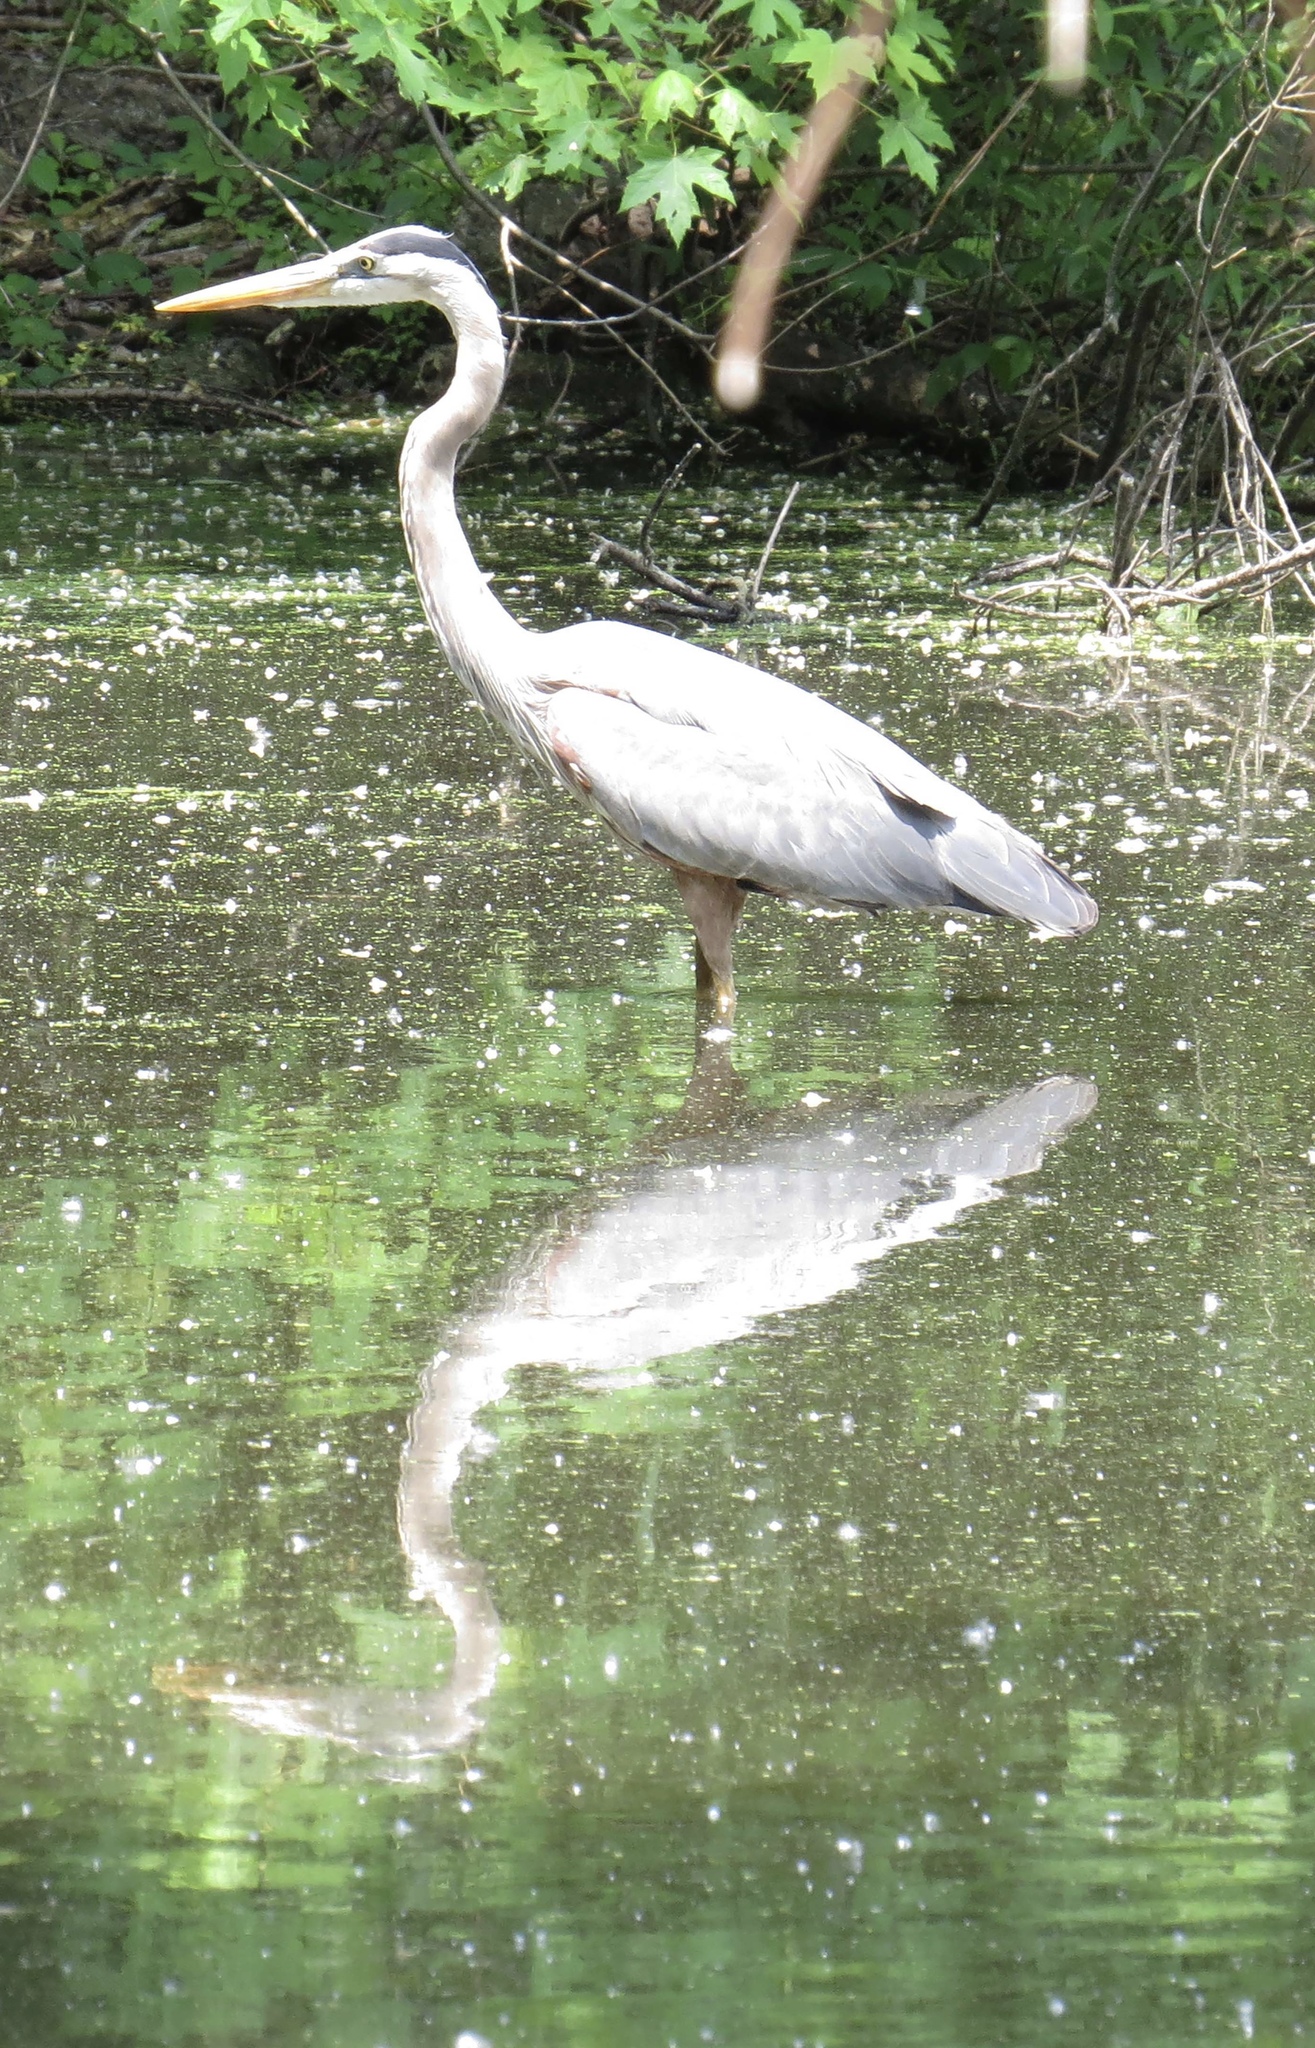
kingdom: Animalia
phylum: Chordata
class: Aves
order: Pelecaniformes
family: Ardeidae
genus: Ardea
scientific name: Ardea herodias
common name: Great blue heron
